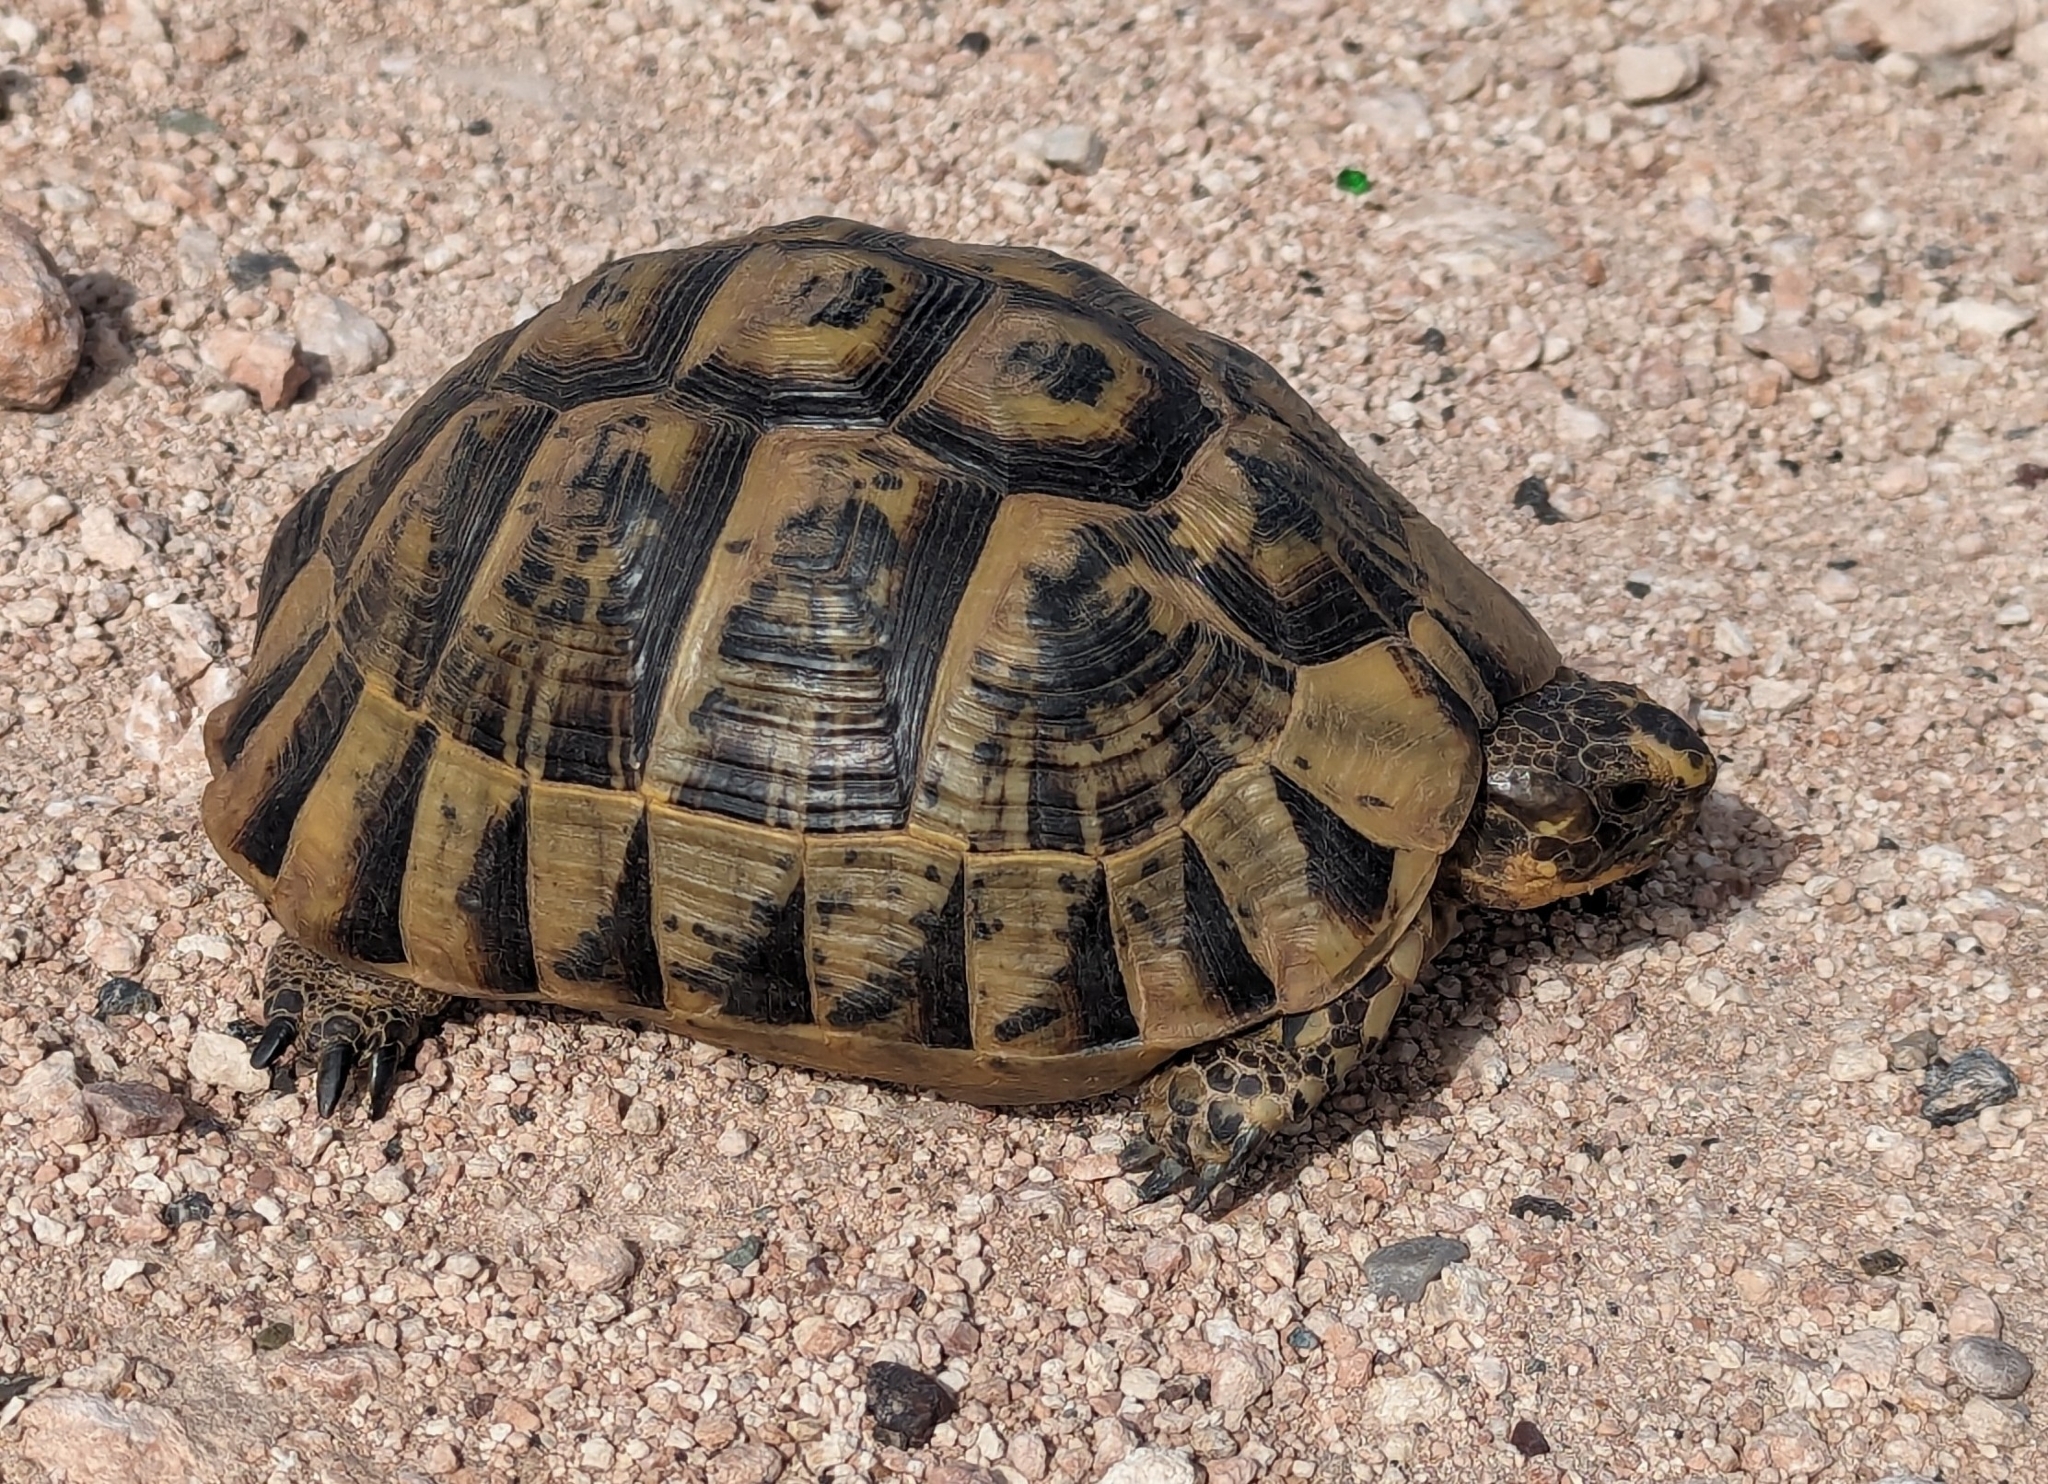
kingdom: Animalia
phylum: Chordata
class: Testudines
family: Testudinidae
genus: Testudo
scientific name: Testudo graeca
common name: Common tortoise
